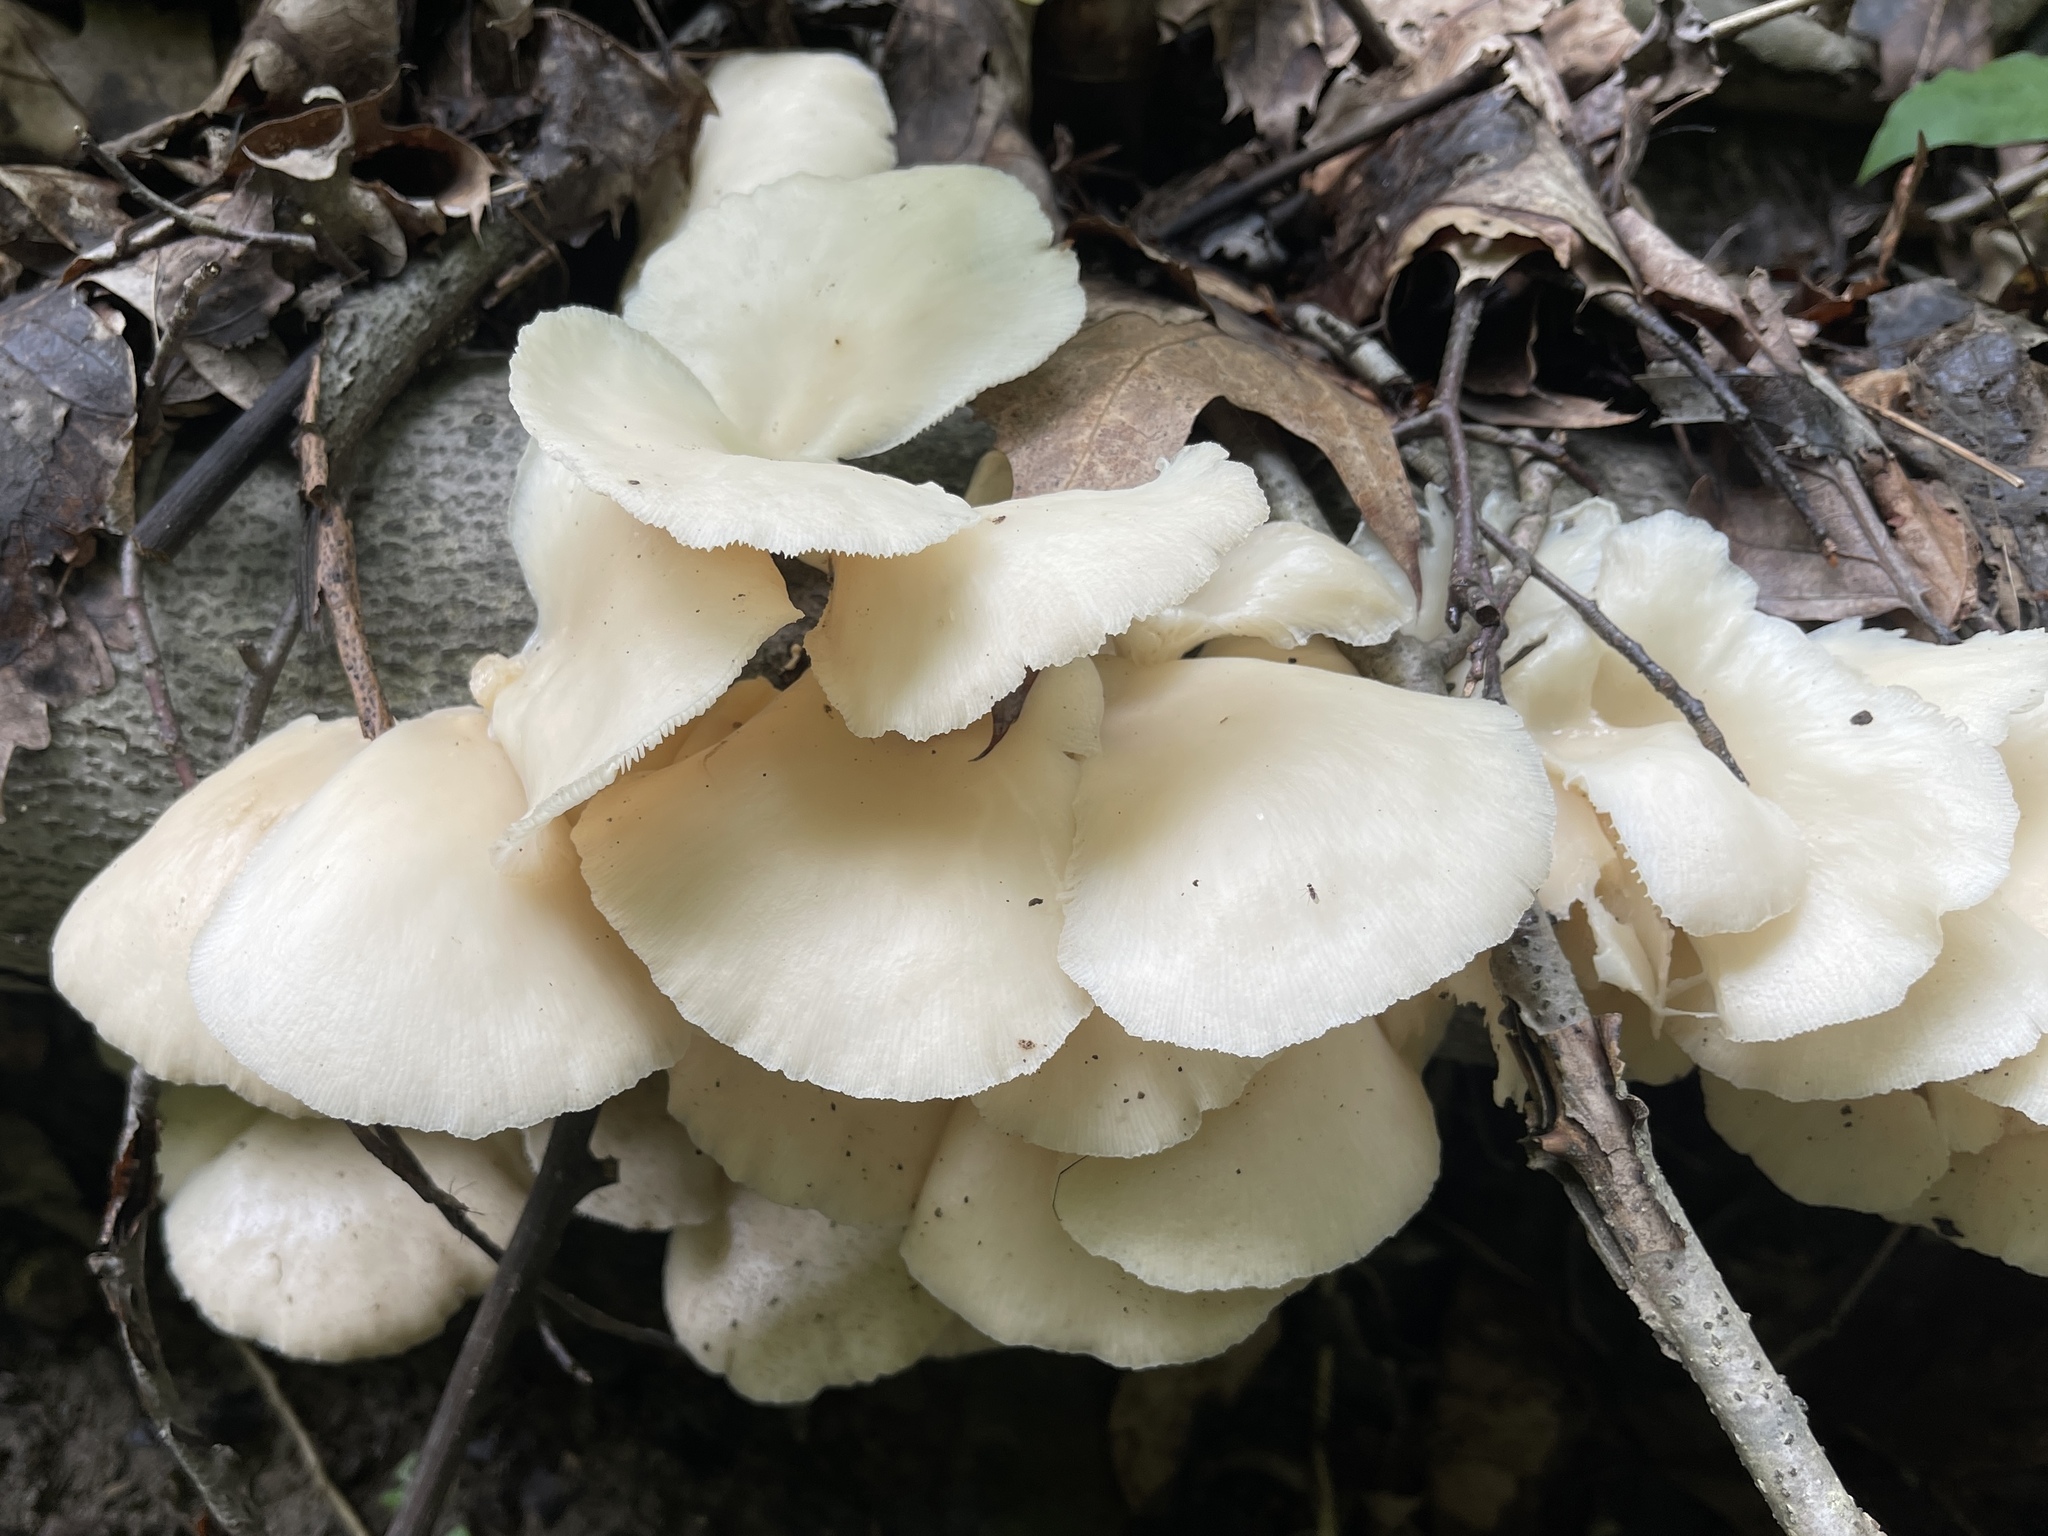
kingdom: Fungi
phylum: Basidiomycota
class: Agaricomycetes
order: Agaricales
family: Pleurotaceae
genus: Pleurotus
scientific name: Pleurotus pulmonarius
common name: Pale oyster
